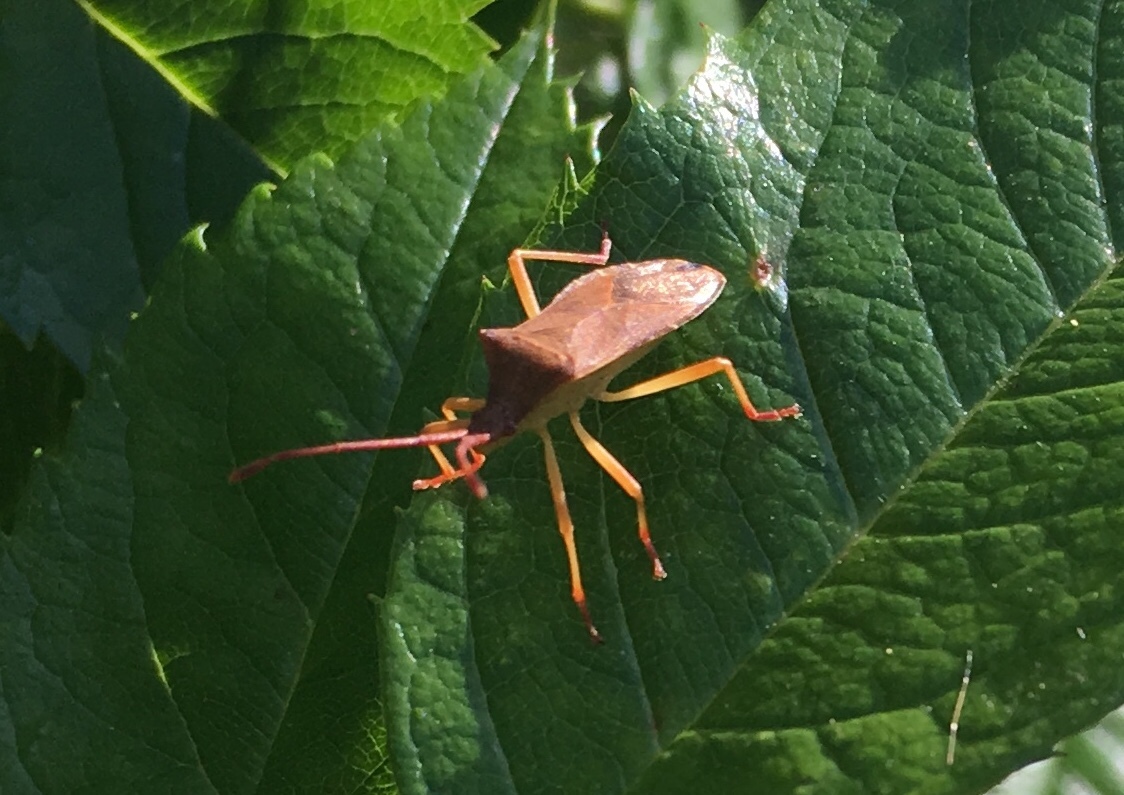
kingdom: Animalia
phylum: Arthropoda
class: Insecta
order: Hemiptera
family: Coreidae
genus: Gonocerus
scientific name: Gonocerus acuteangulatus
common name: Box bug
